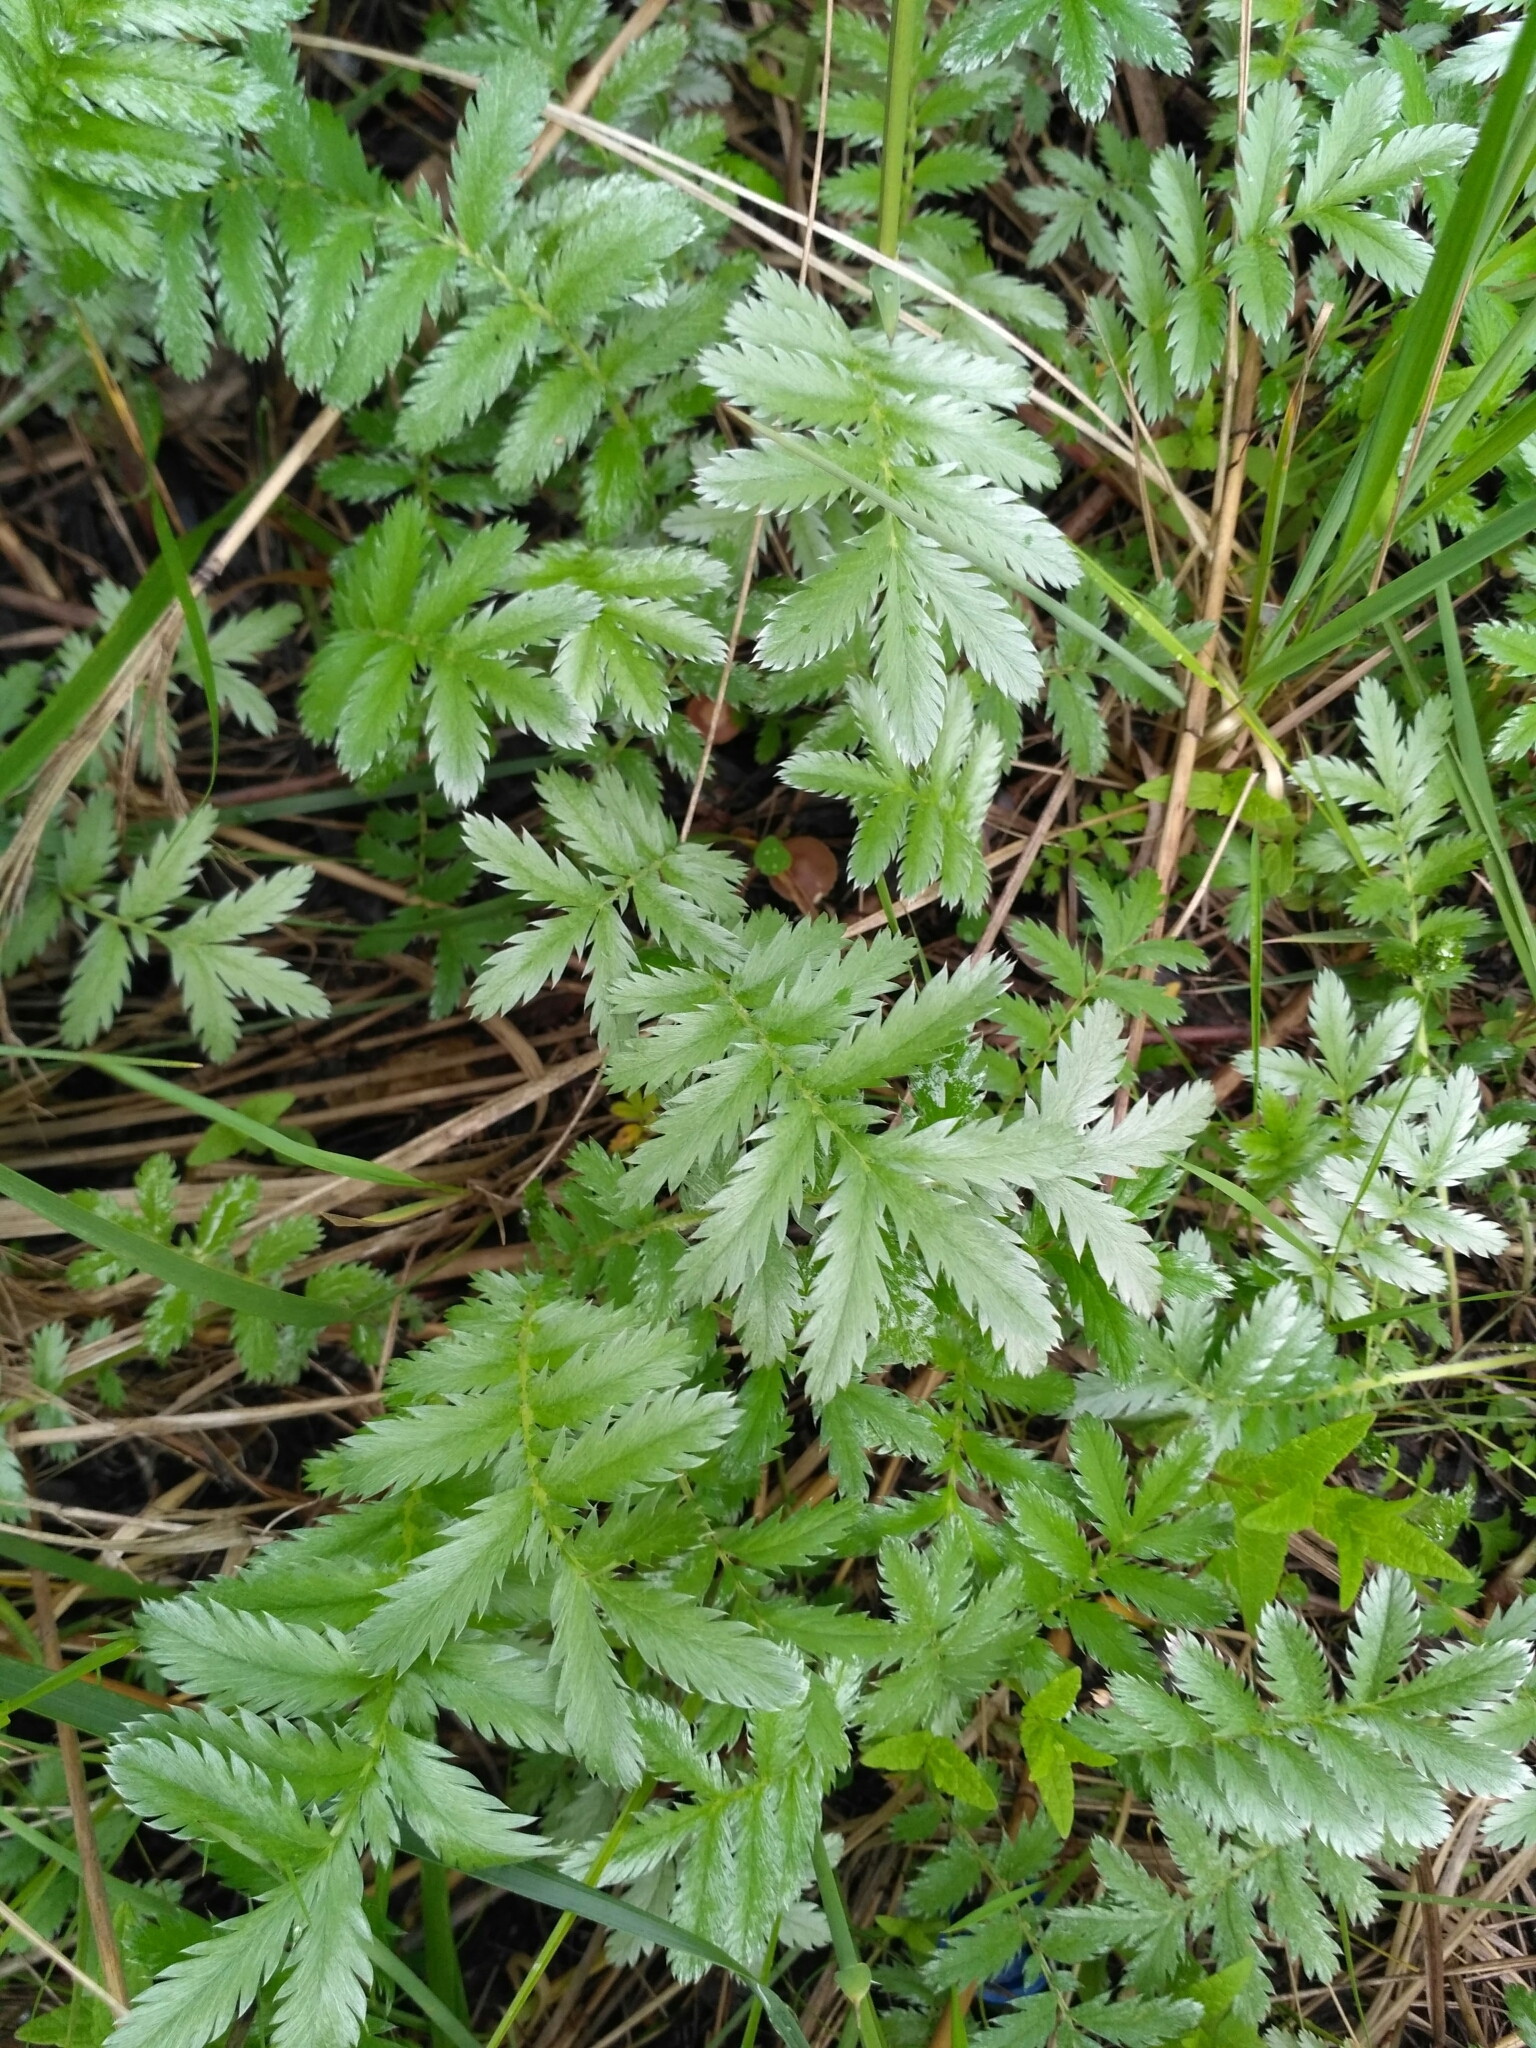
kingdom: Plantae
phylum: Tracheophyta
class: Magnoliopsida
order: Rosales
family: Rosaceae
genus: Argentina
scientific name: Argentina anserina
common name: Common silverweed
